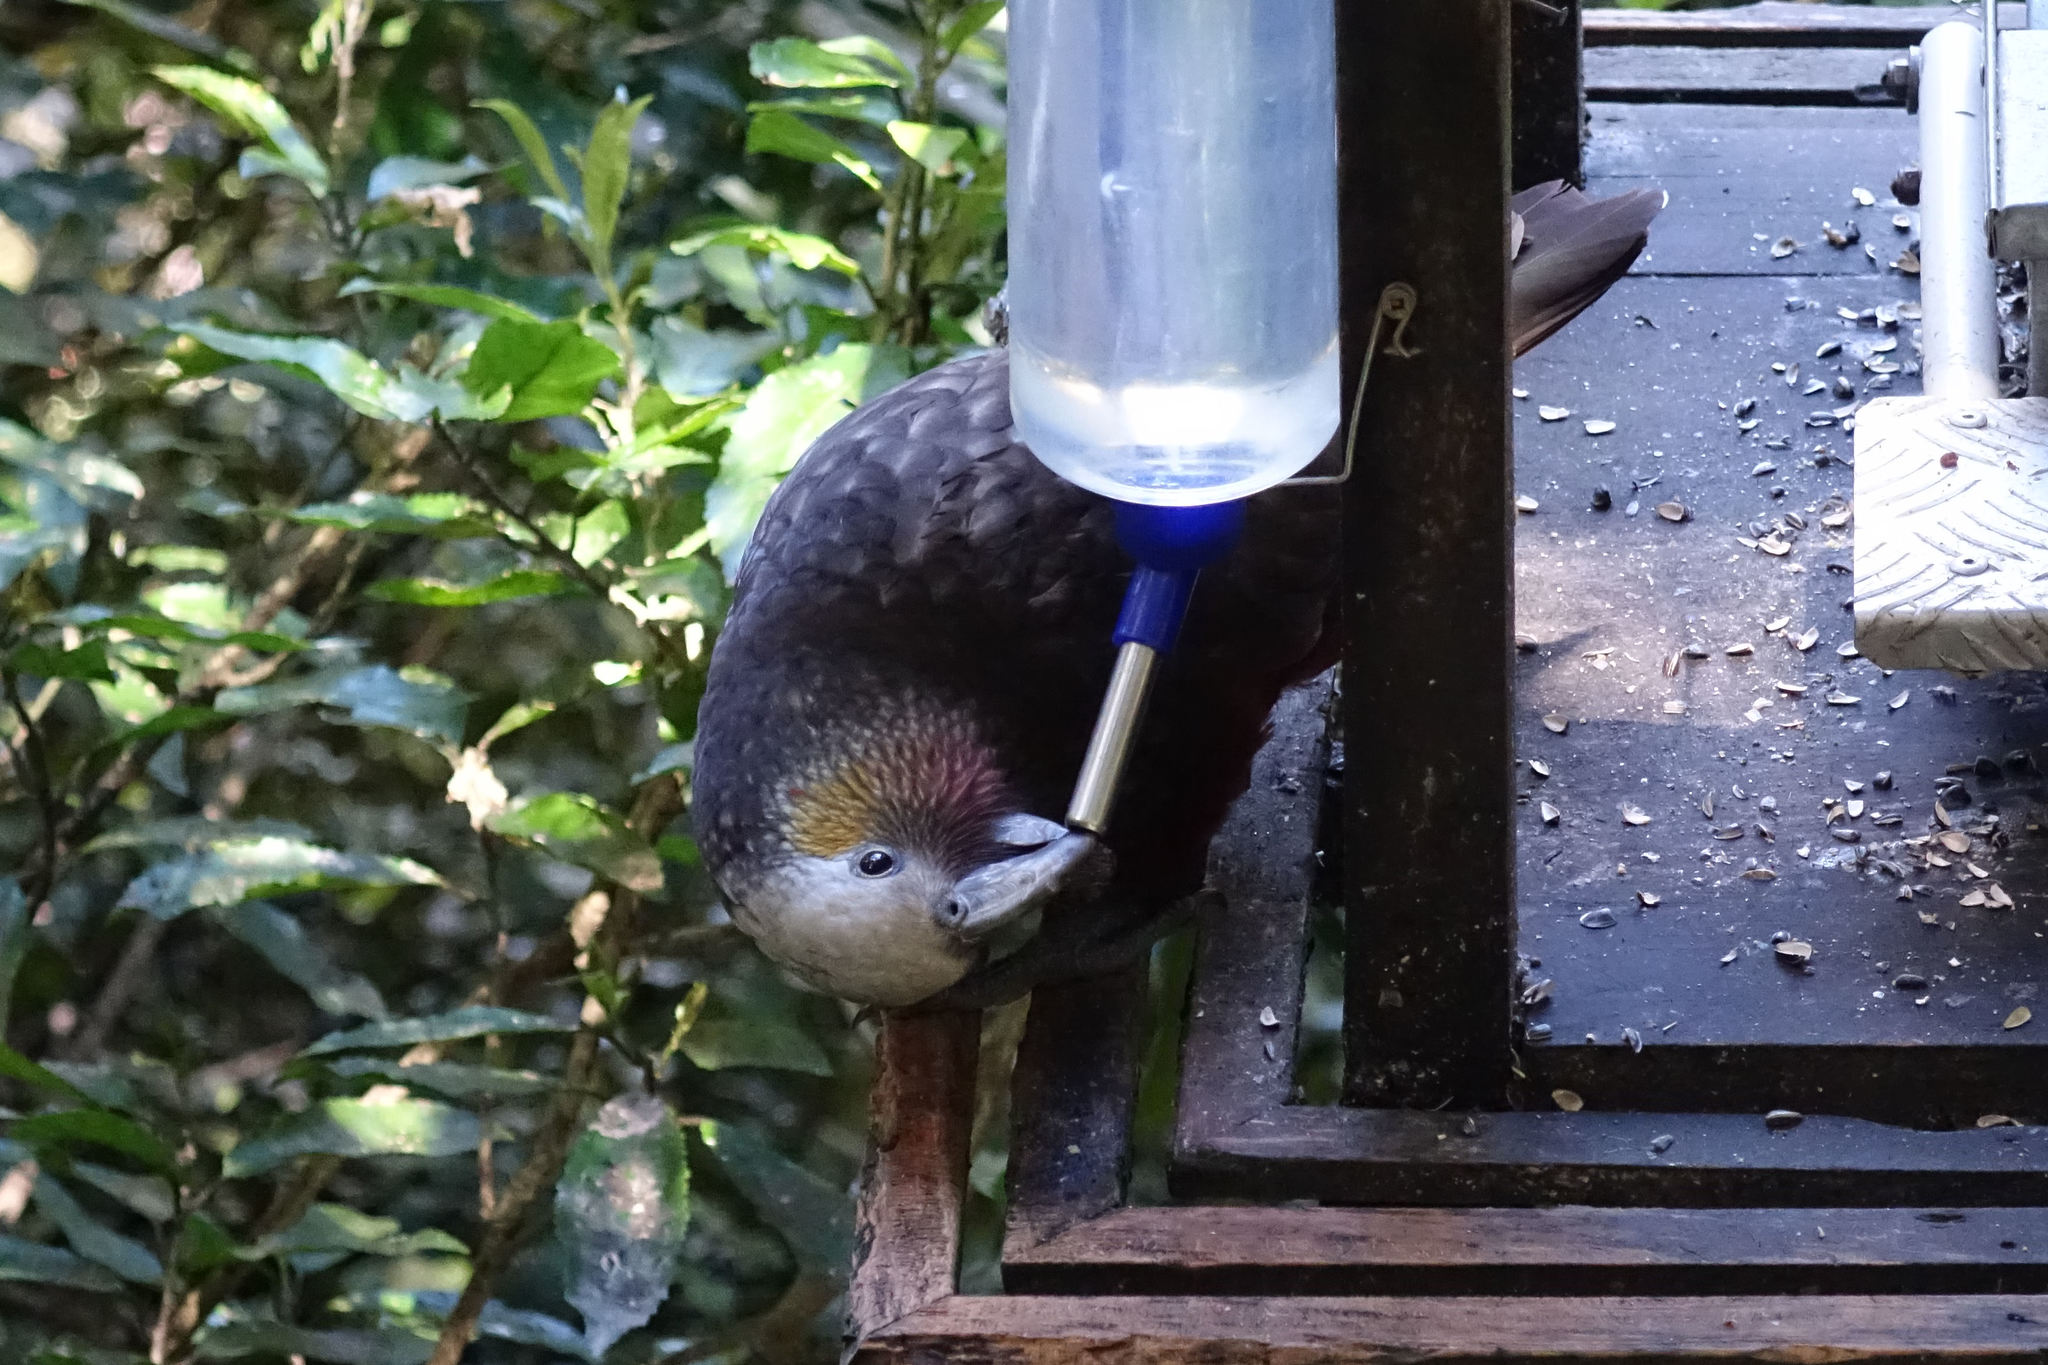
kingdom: Animalia
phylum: Chordata
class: Aves
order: Psittaciformes
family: Psittacidae
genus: Nestor
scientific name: Nestor meridionalis
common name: New zealand kaka
